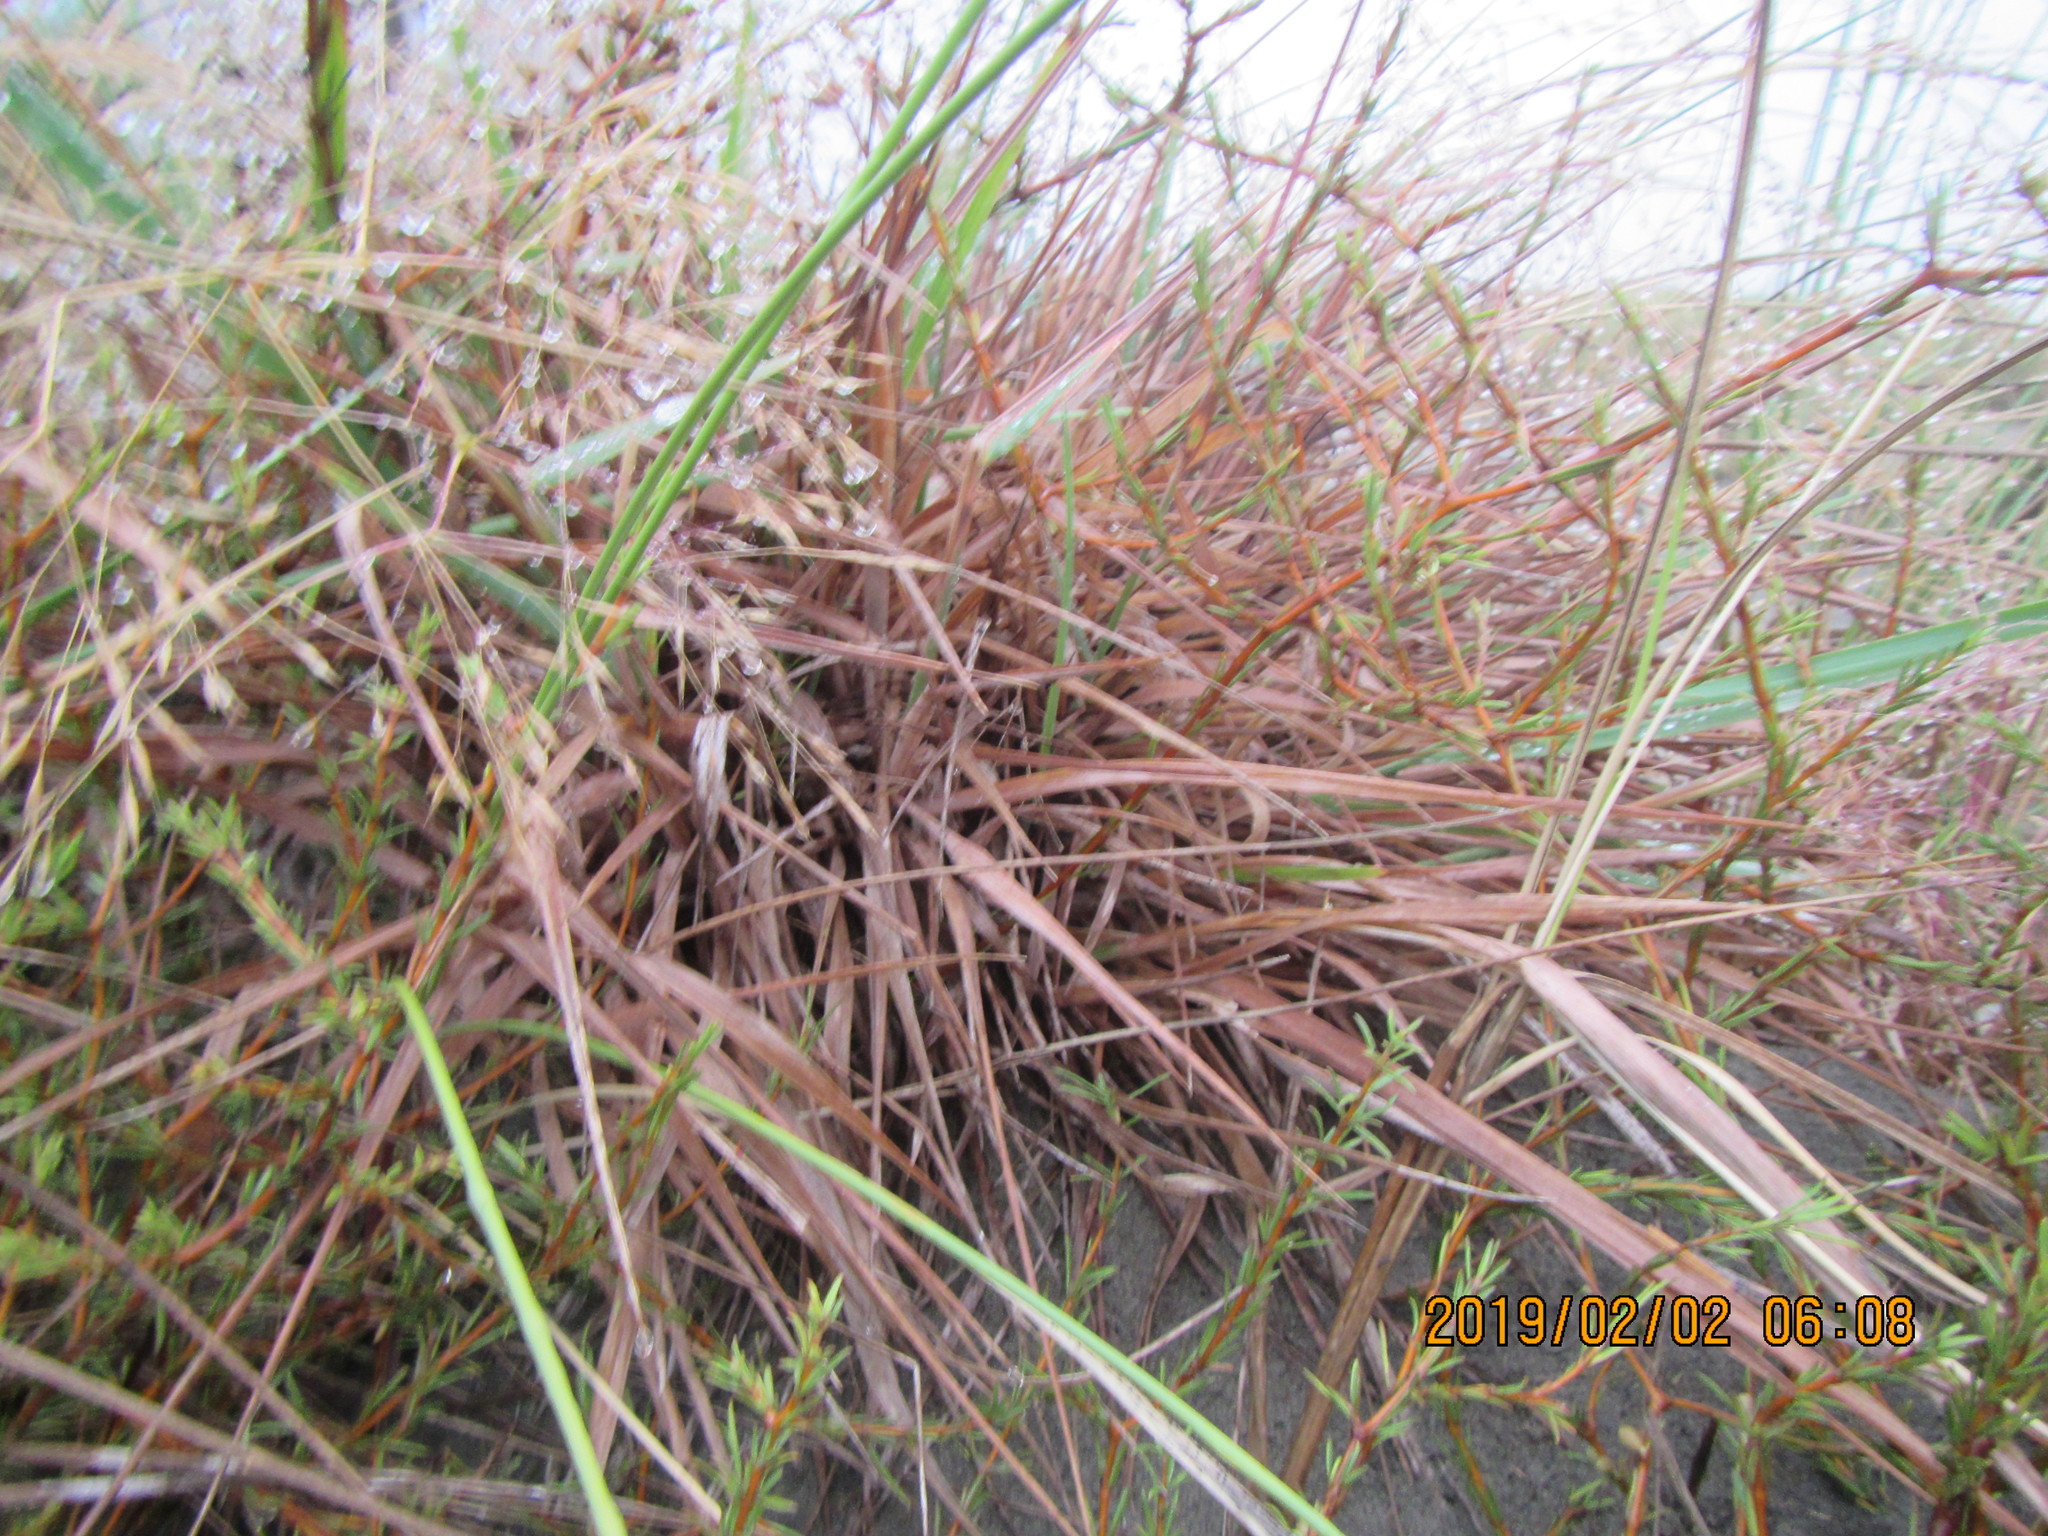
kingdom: Plantae
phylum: Tracheophyta
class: Liliopsida
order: Poales
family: Poaceae
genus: Lachnagrostis
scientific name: Lachnagrostis billardierei
